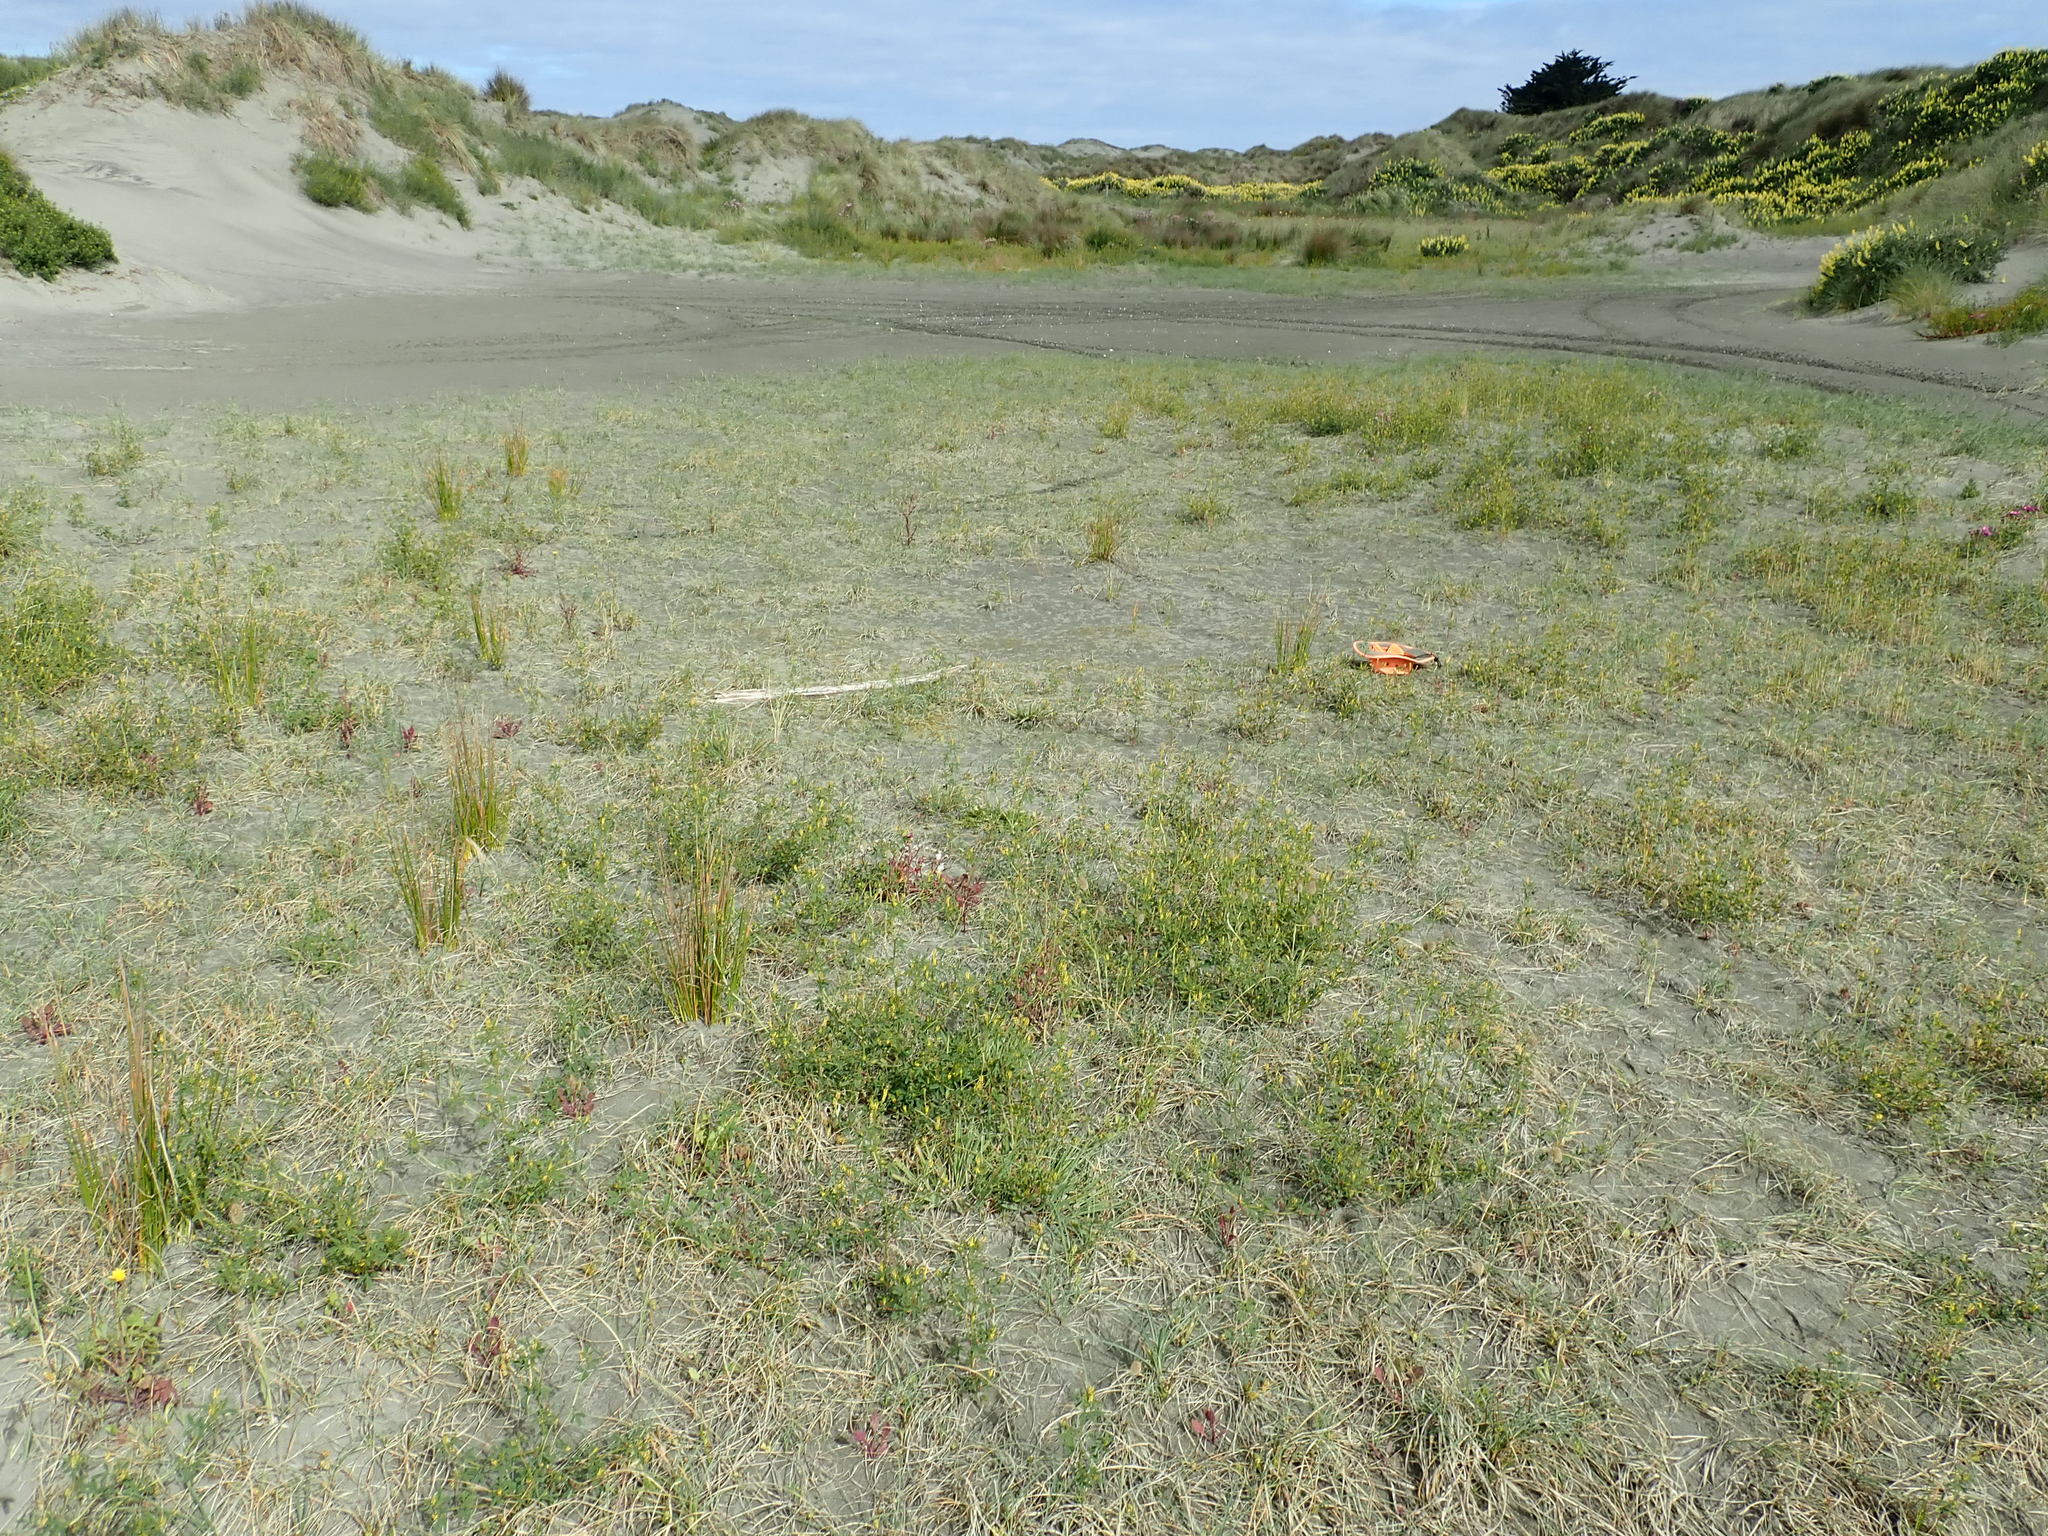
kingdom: Plantae
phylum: Tracheophyta
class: Magnoliopsida
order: Apiales
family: Apiaceae
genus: Lilaeopsis
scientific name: Lilaeopsis novae-zelandiae
